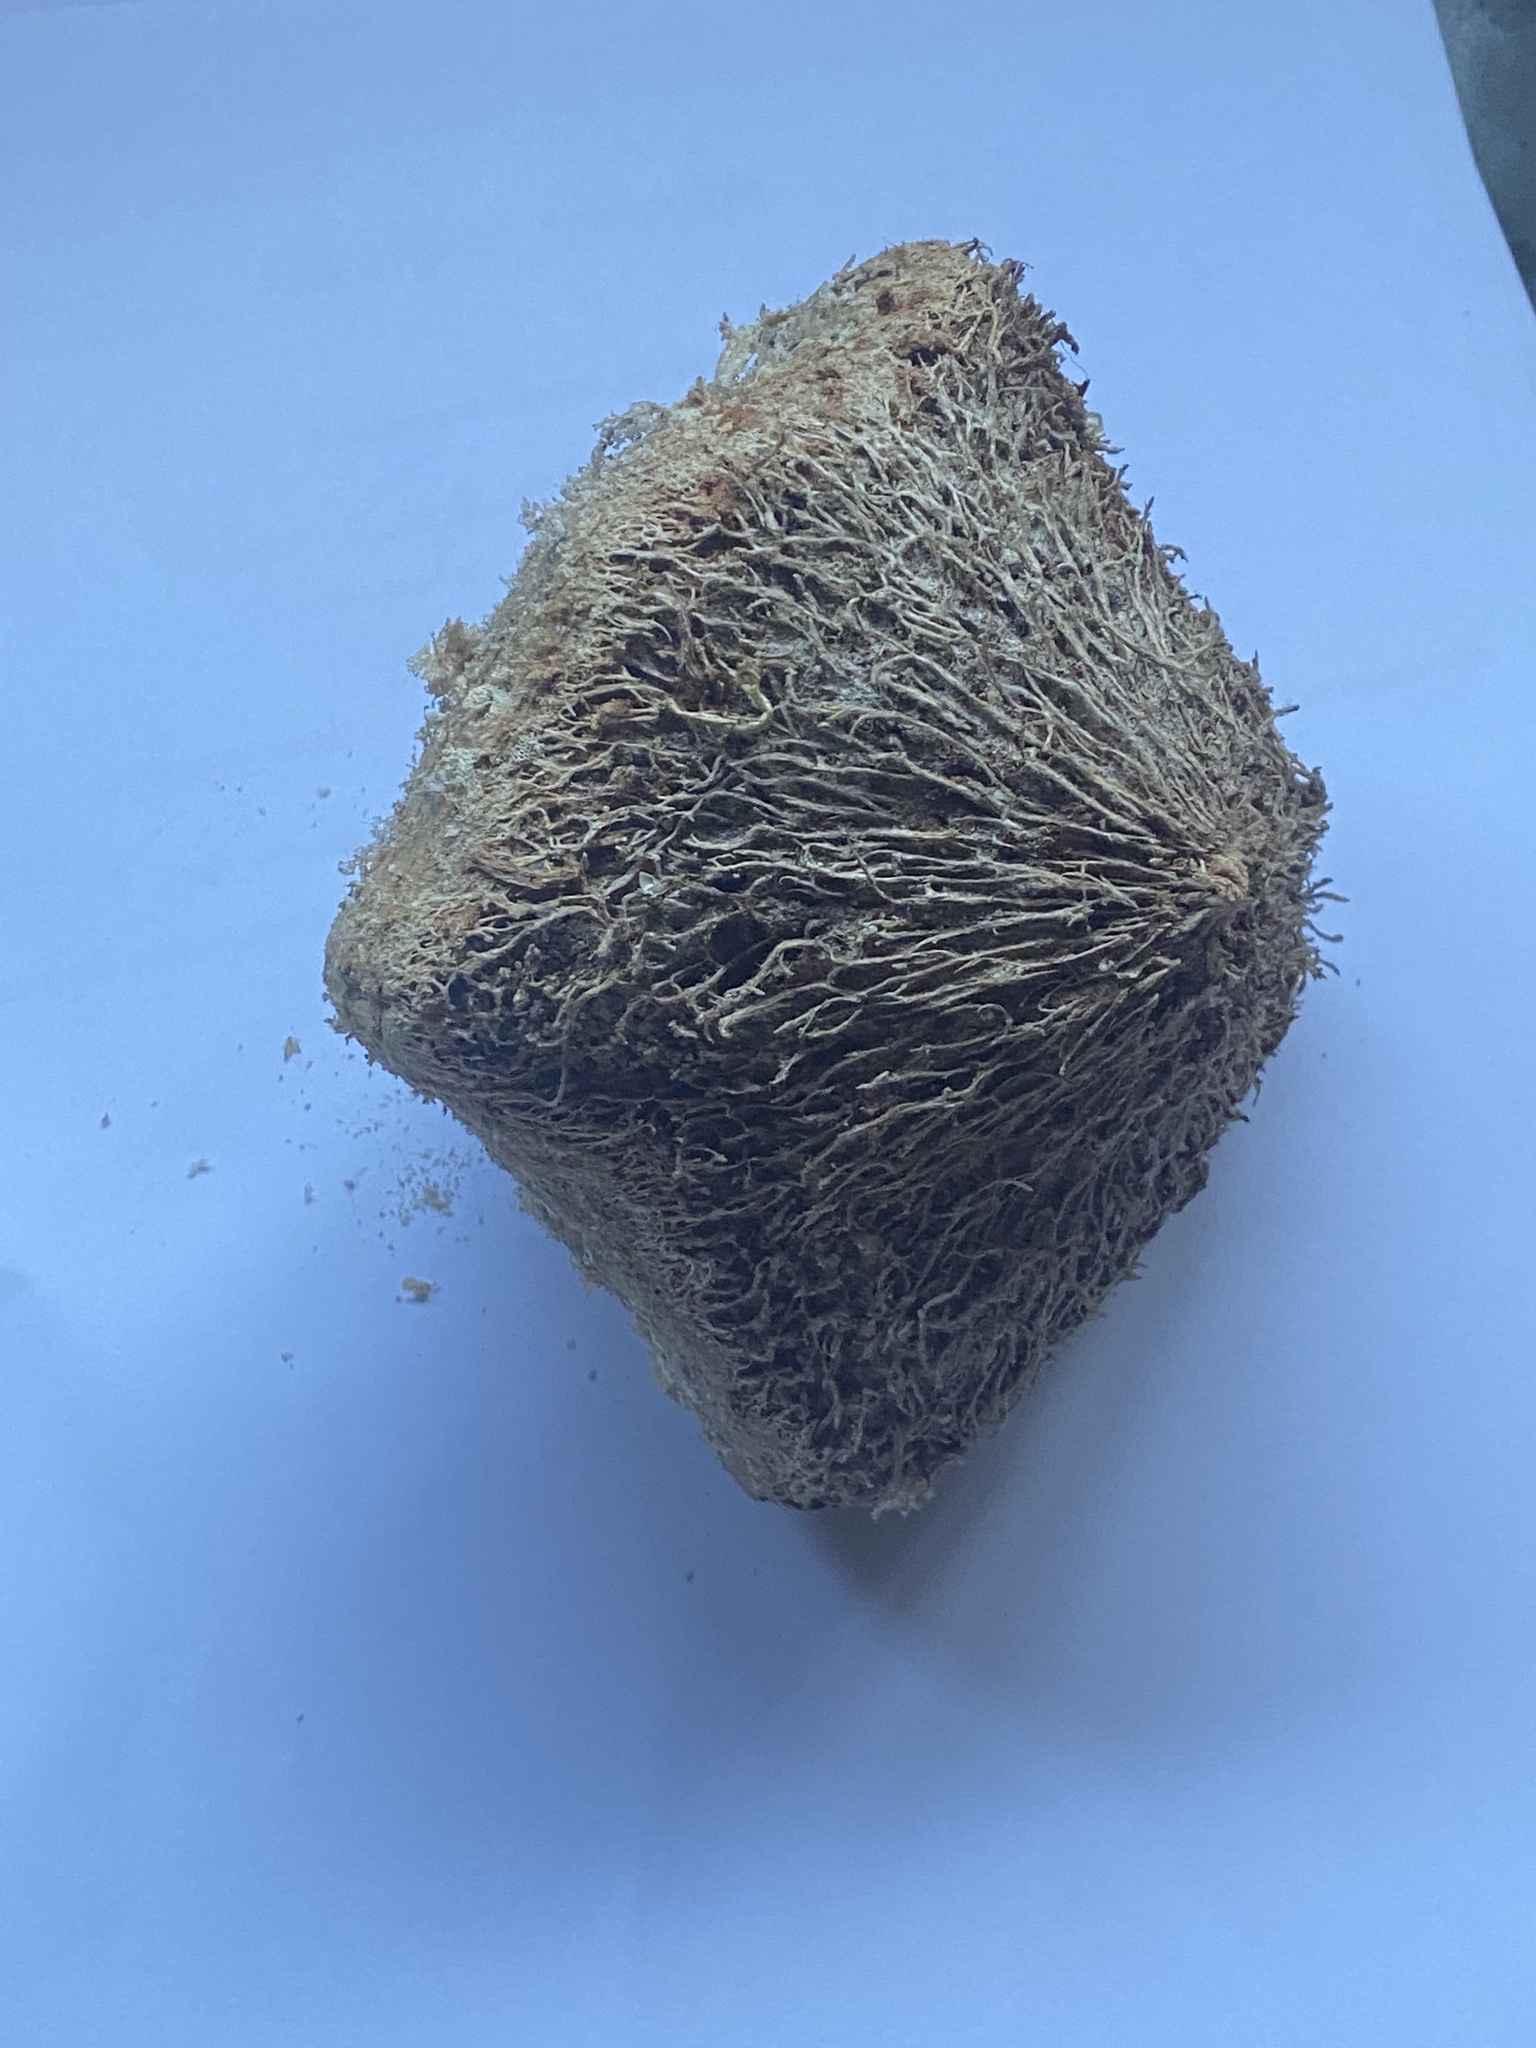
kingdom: Plantae
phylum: Tracheophyta
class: Magnoliopsida
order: Ericales
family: Lecythidaceae
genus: Barringtonia
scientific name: Barringtonia asiatica
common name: Mango-pine
